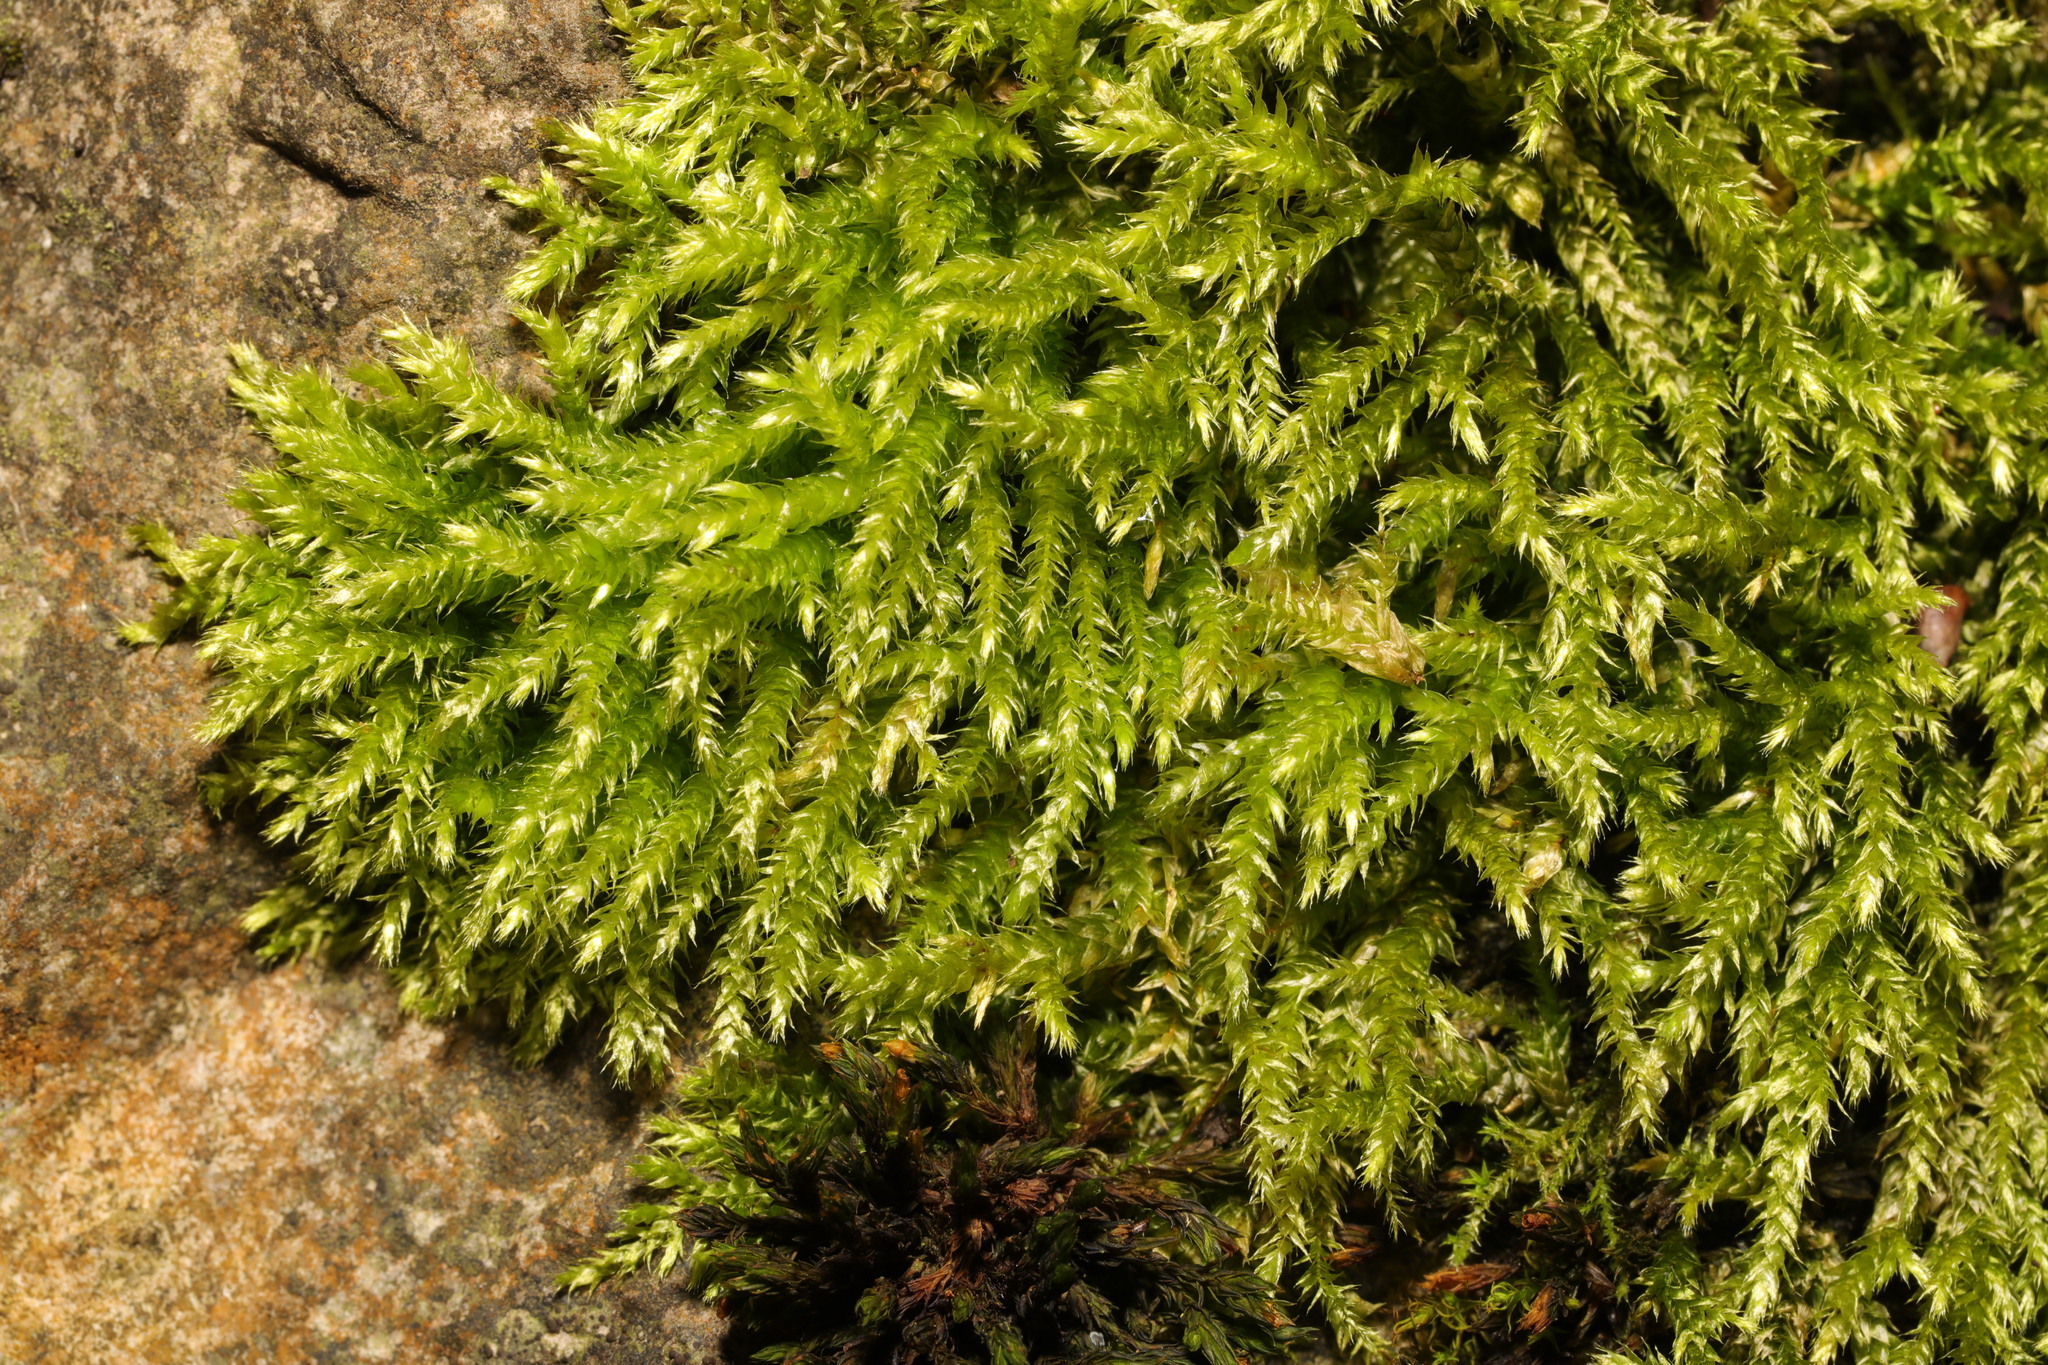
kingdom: Plantae
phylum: Bryophyta
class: Bryopsida
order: Hypnales
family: Brachytheciaceae
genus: Rhynchostegium
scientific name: Rhynchostegium confertum
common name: Clustered feather-moss
